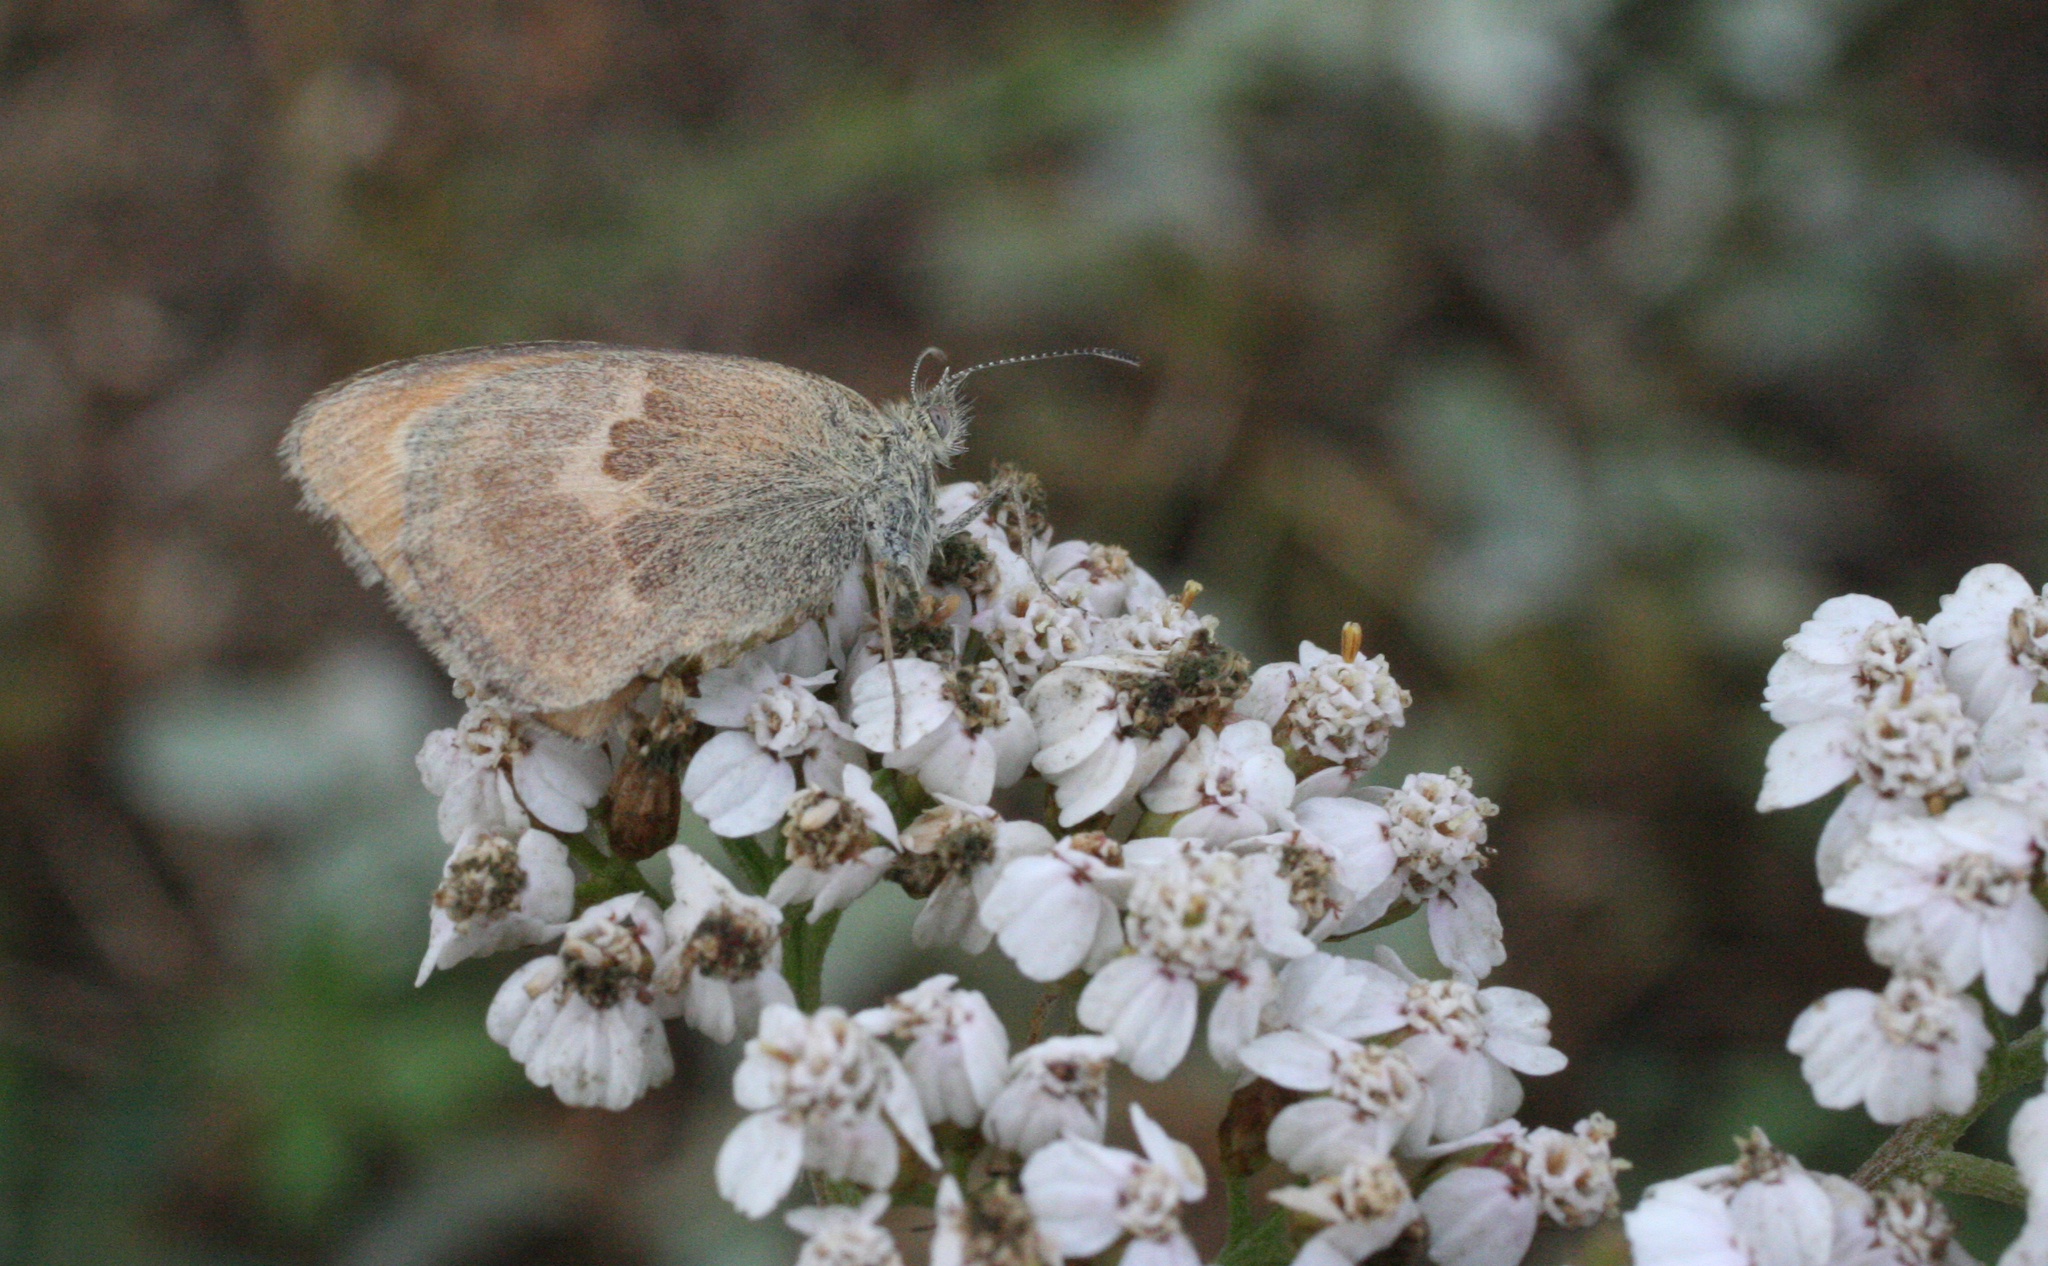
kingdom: Animalia
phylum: Arthropoda
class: Insecta
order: Lepidoptera
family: Nymphalidae
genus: Coenonympha
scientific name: Coenonympha pamphilus
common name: Small heath
